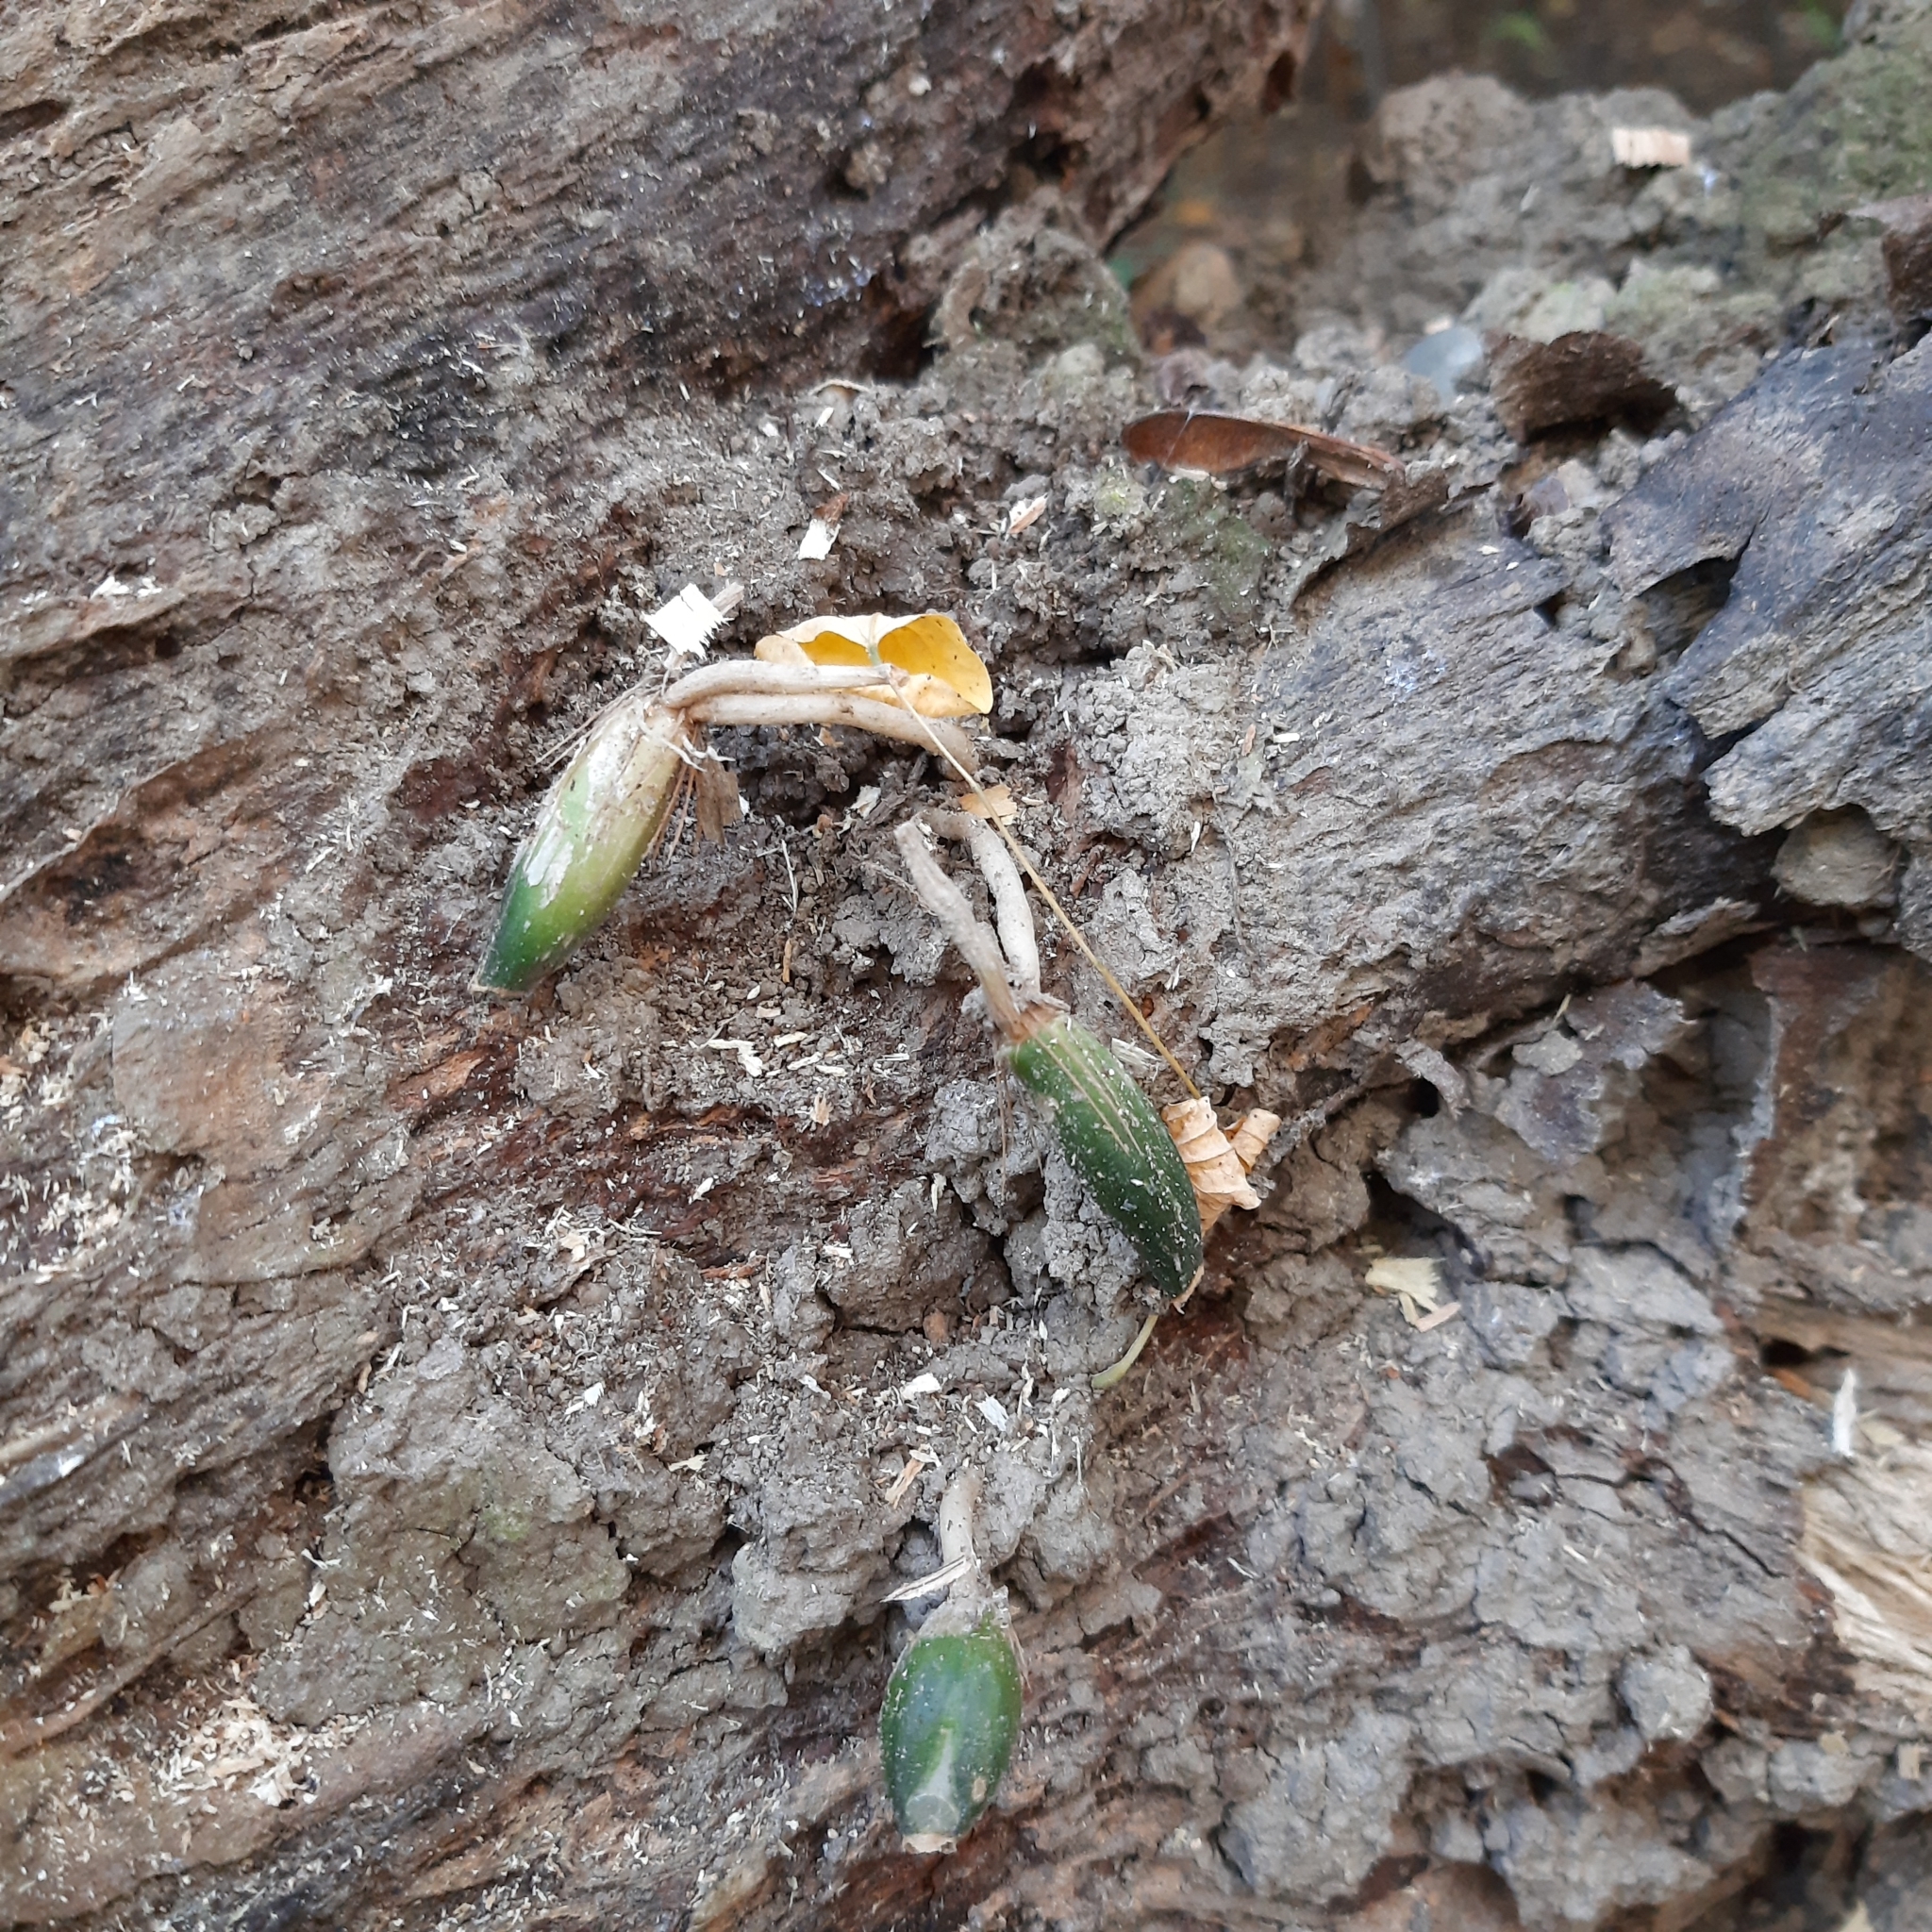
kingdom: Plantae
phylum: Tracheophyta
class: Magnoliopsida
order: Santalales
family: Viscaceae
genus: Viscum
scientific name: Viscum album
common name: Mistletoe
